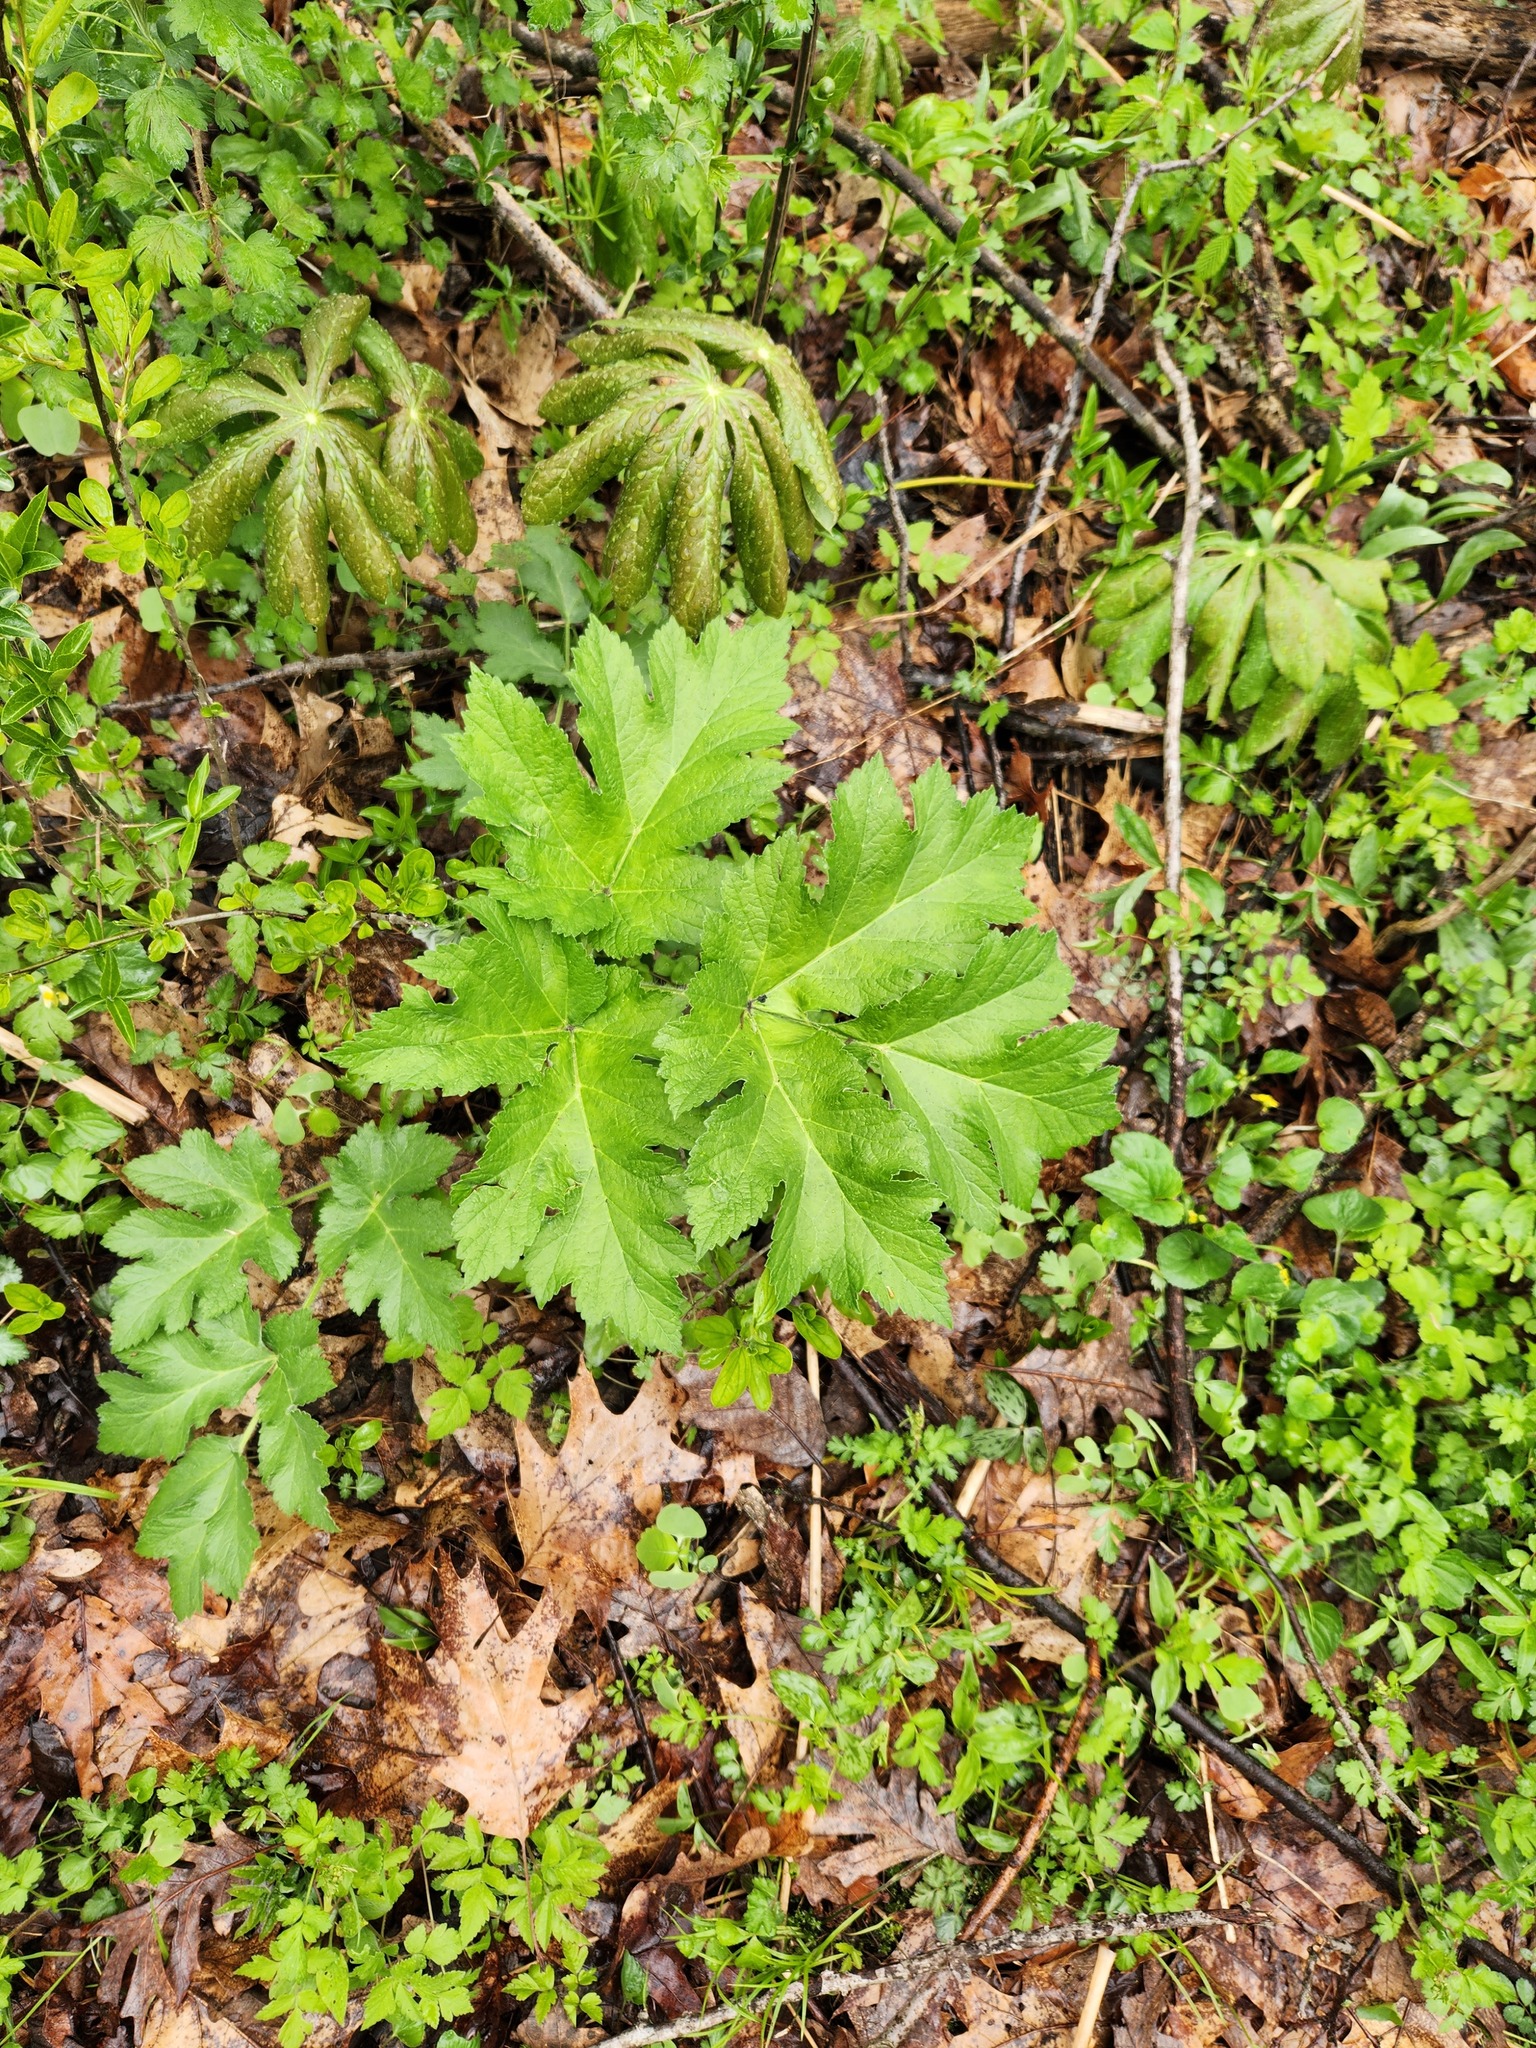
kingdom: Plantae
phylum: Tracheophyta
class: Magnoliopsida
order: Apiales
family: Apiaceae
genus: Heracleum
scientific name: Heracleum maximum
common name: American cow parsnip
